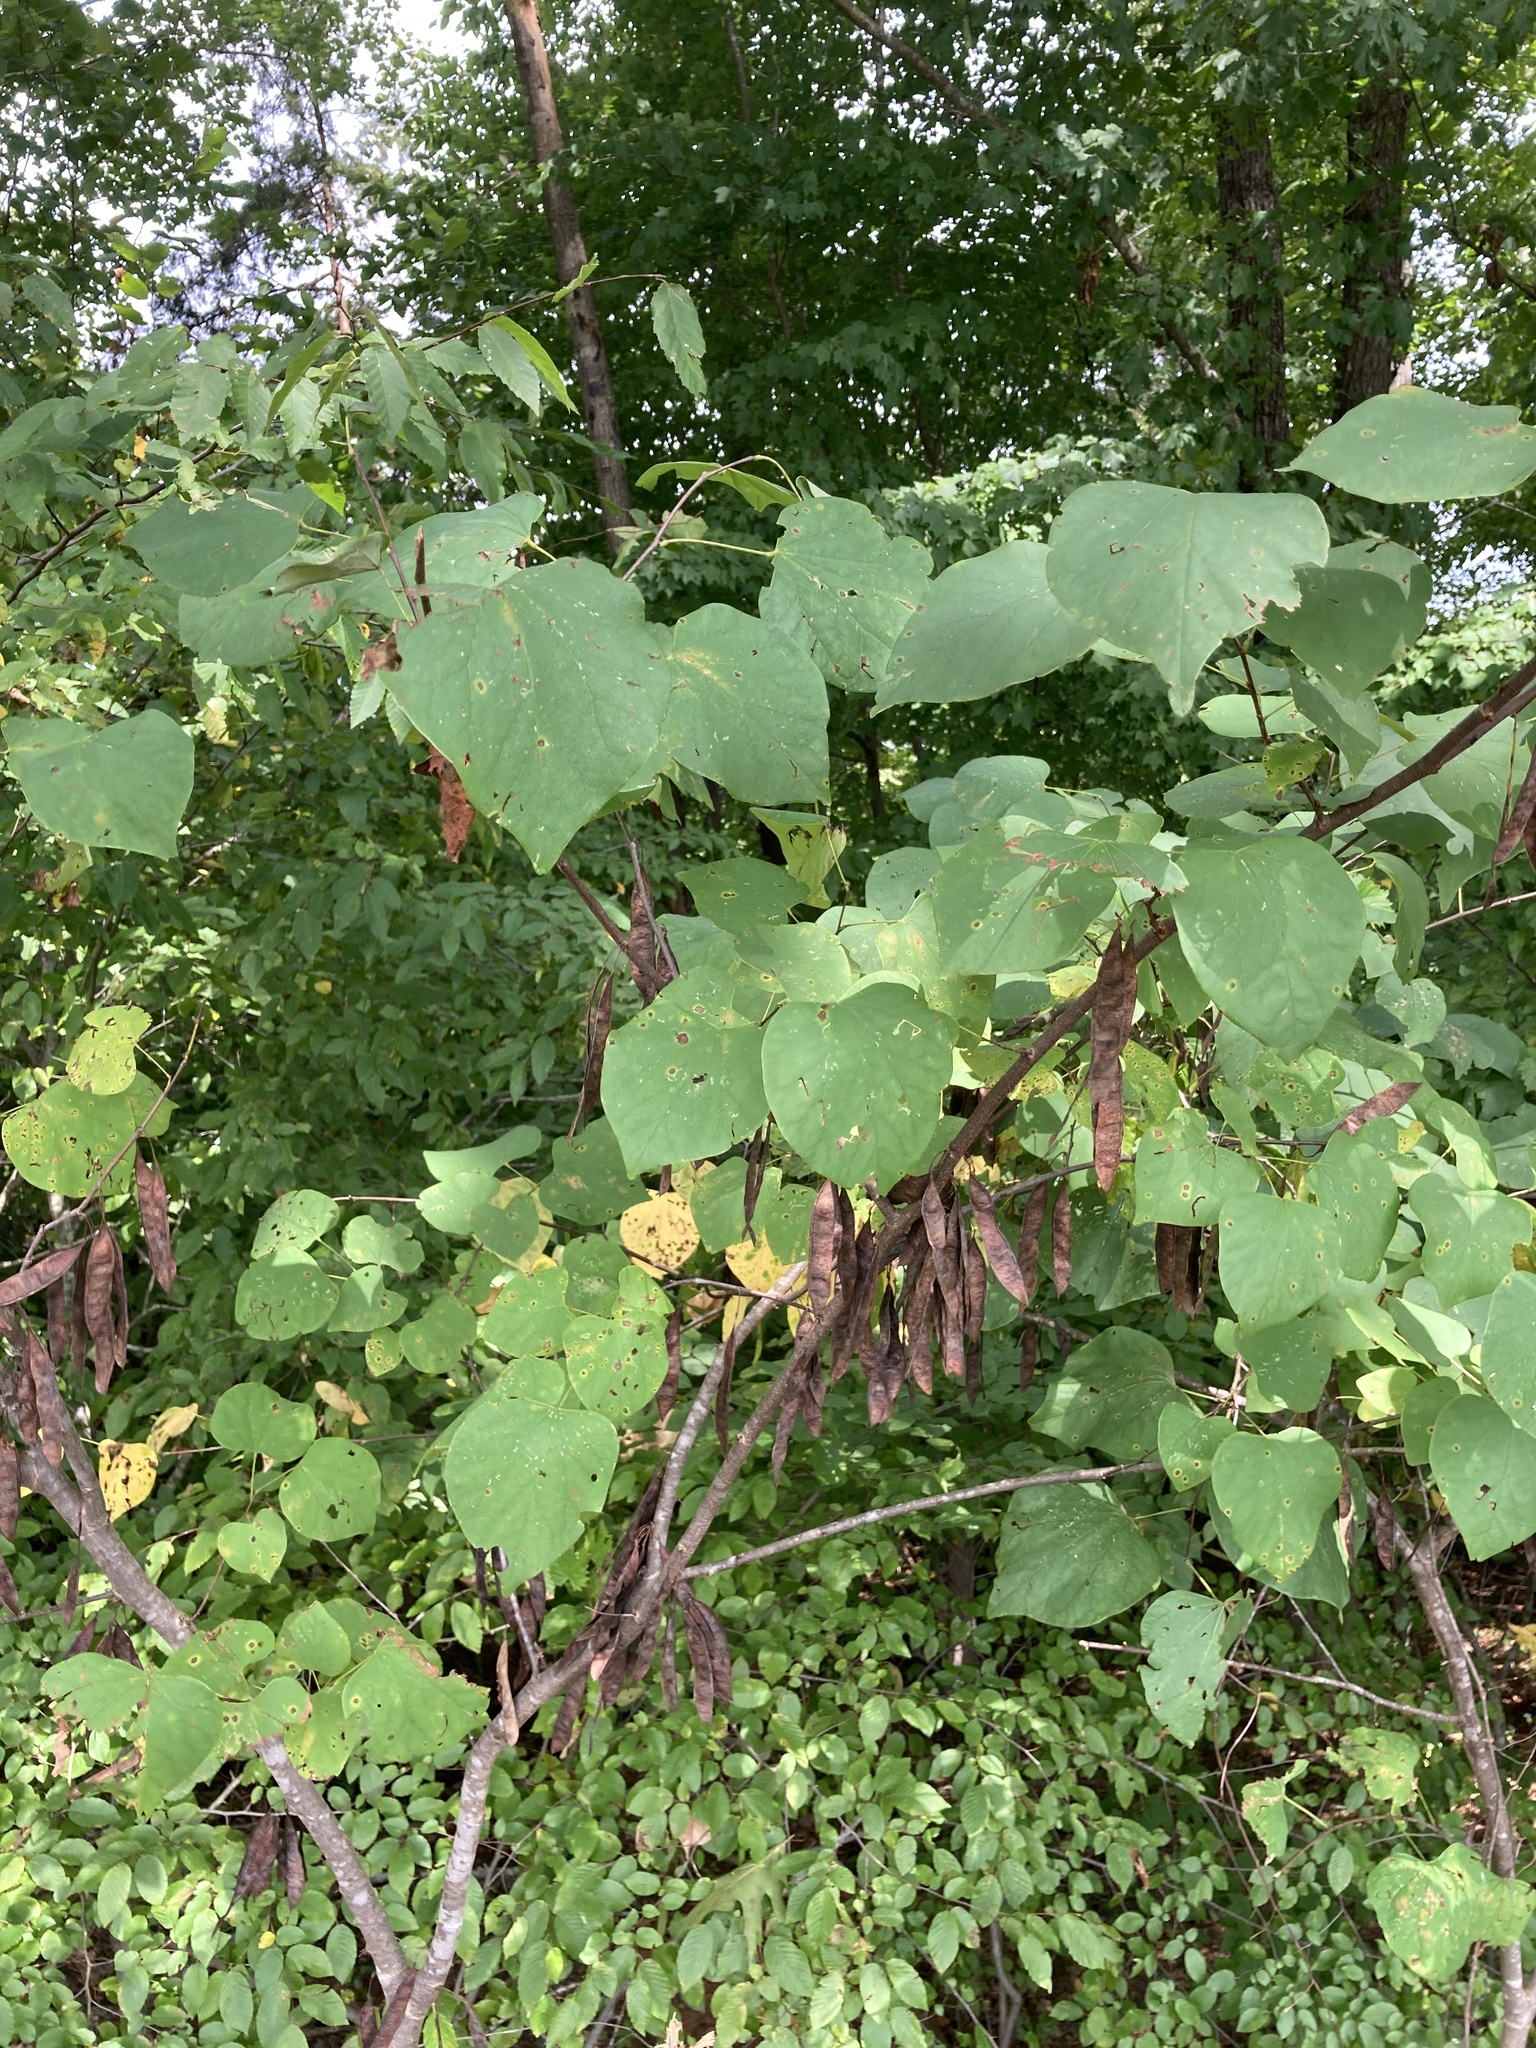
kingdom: Plantae
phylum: Tracheophyta
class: Magnoliopsida
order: Fabales
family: Fabaceae
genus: Cercis
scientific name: Cercis canadensis
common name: Eastern redbud
